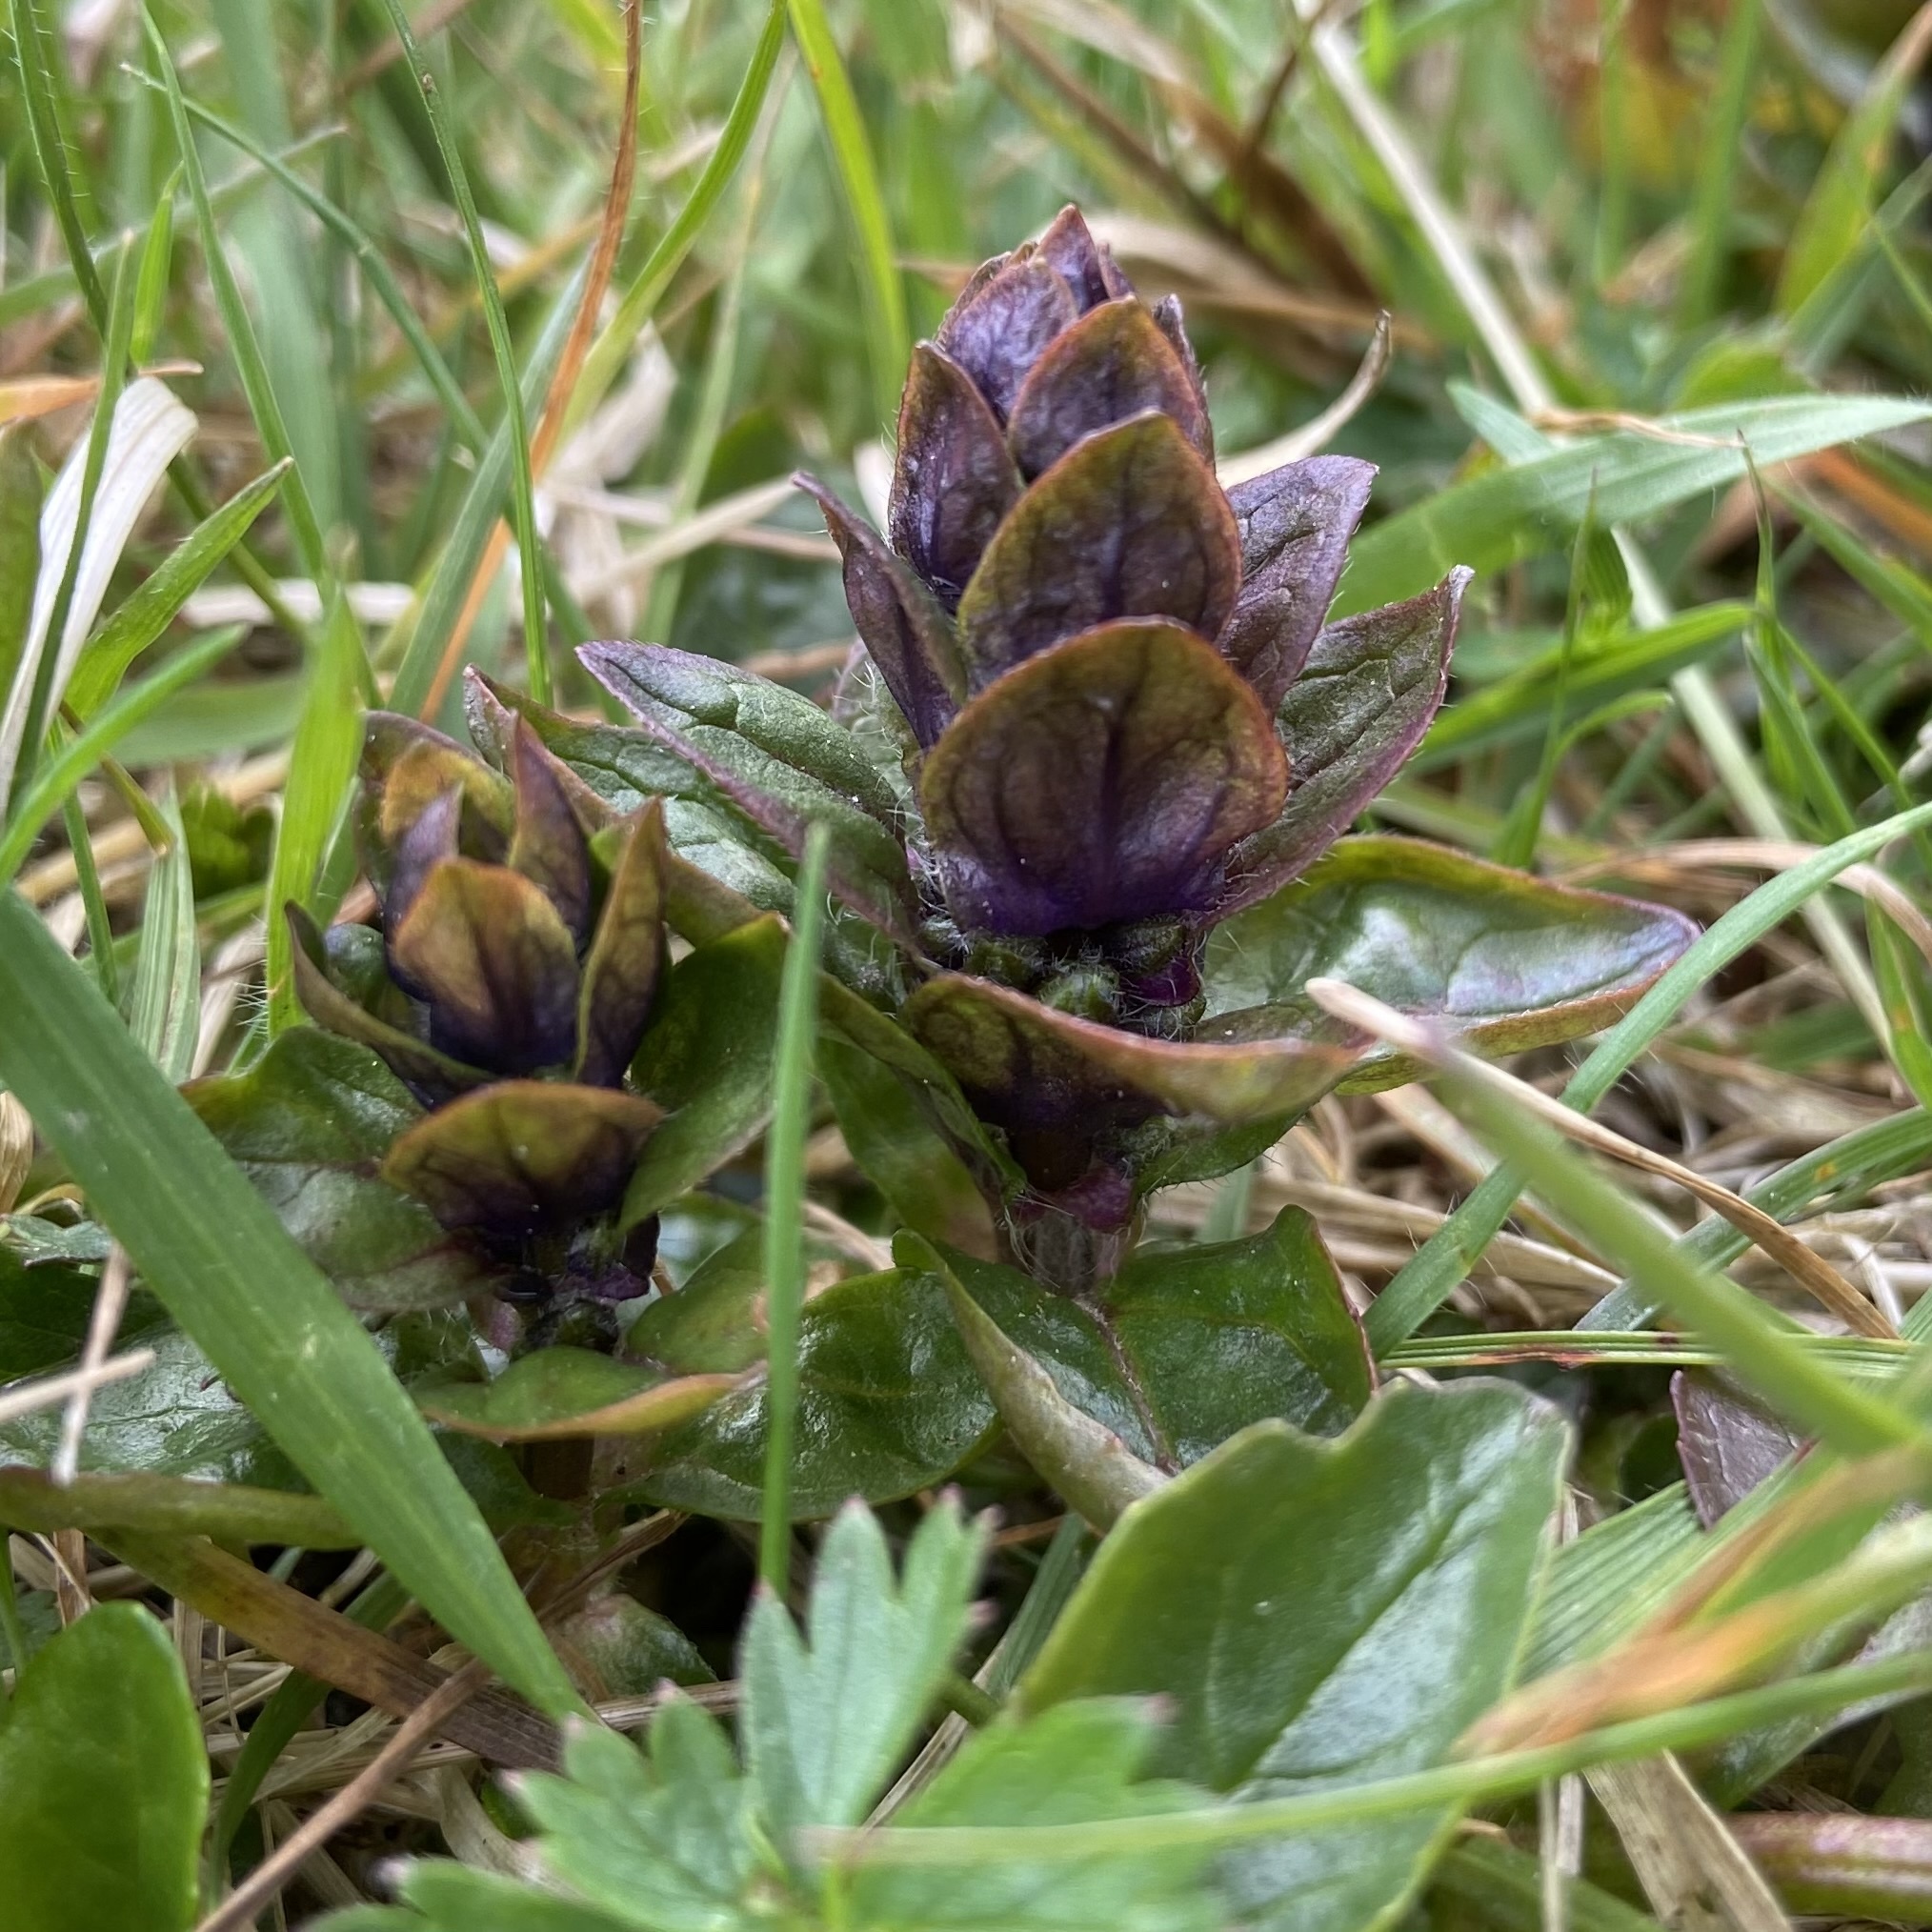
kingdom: Plantae
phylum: Tracheophyta
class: Magnoliopsida
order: Lamiales
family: Lamiaceae
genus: Ajuga
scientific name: Ajuga reptans
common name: Bugle
